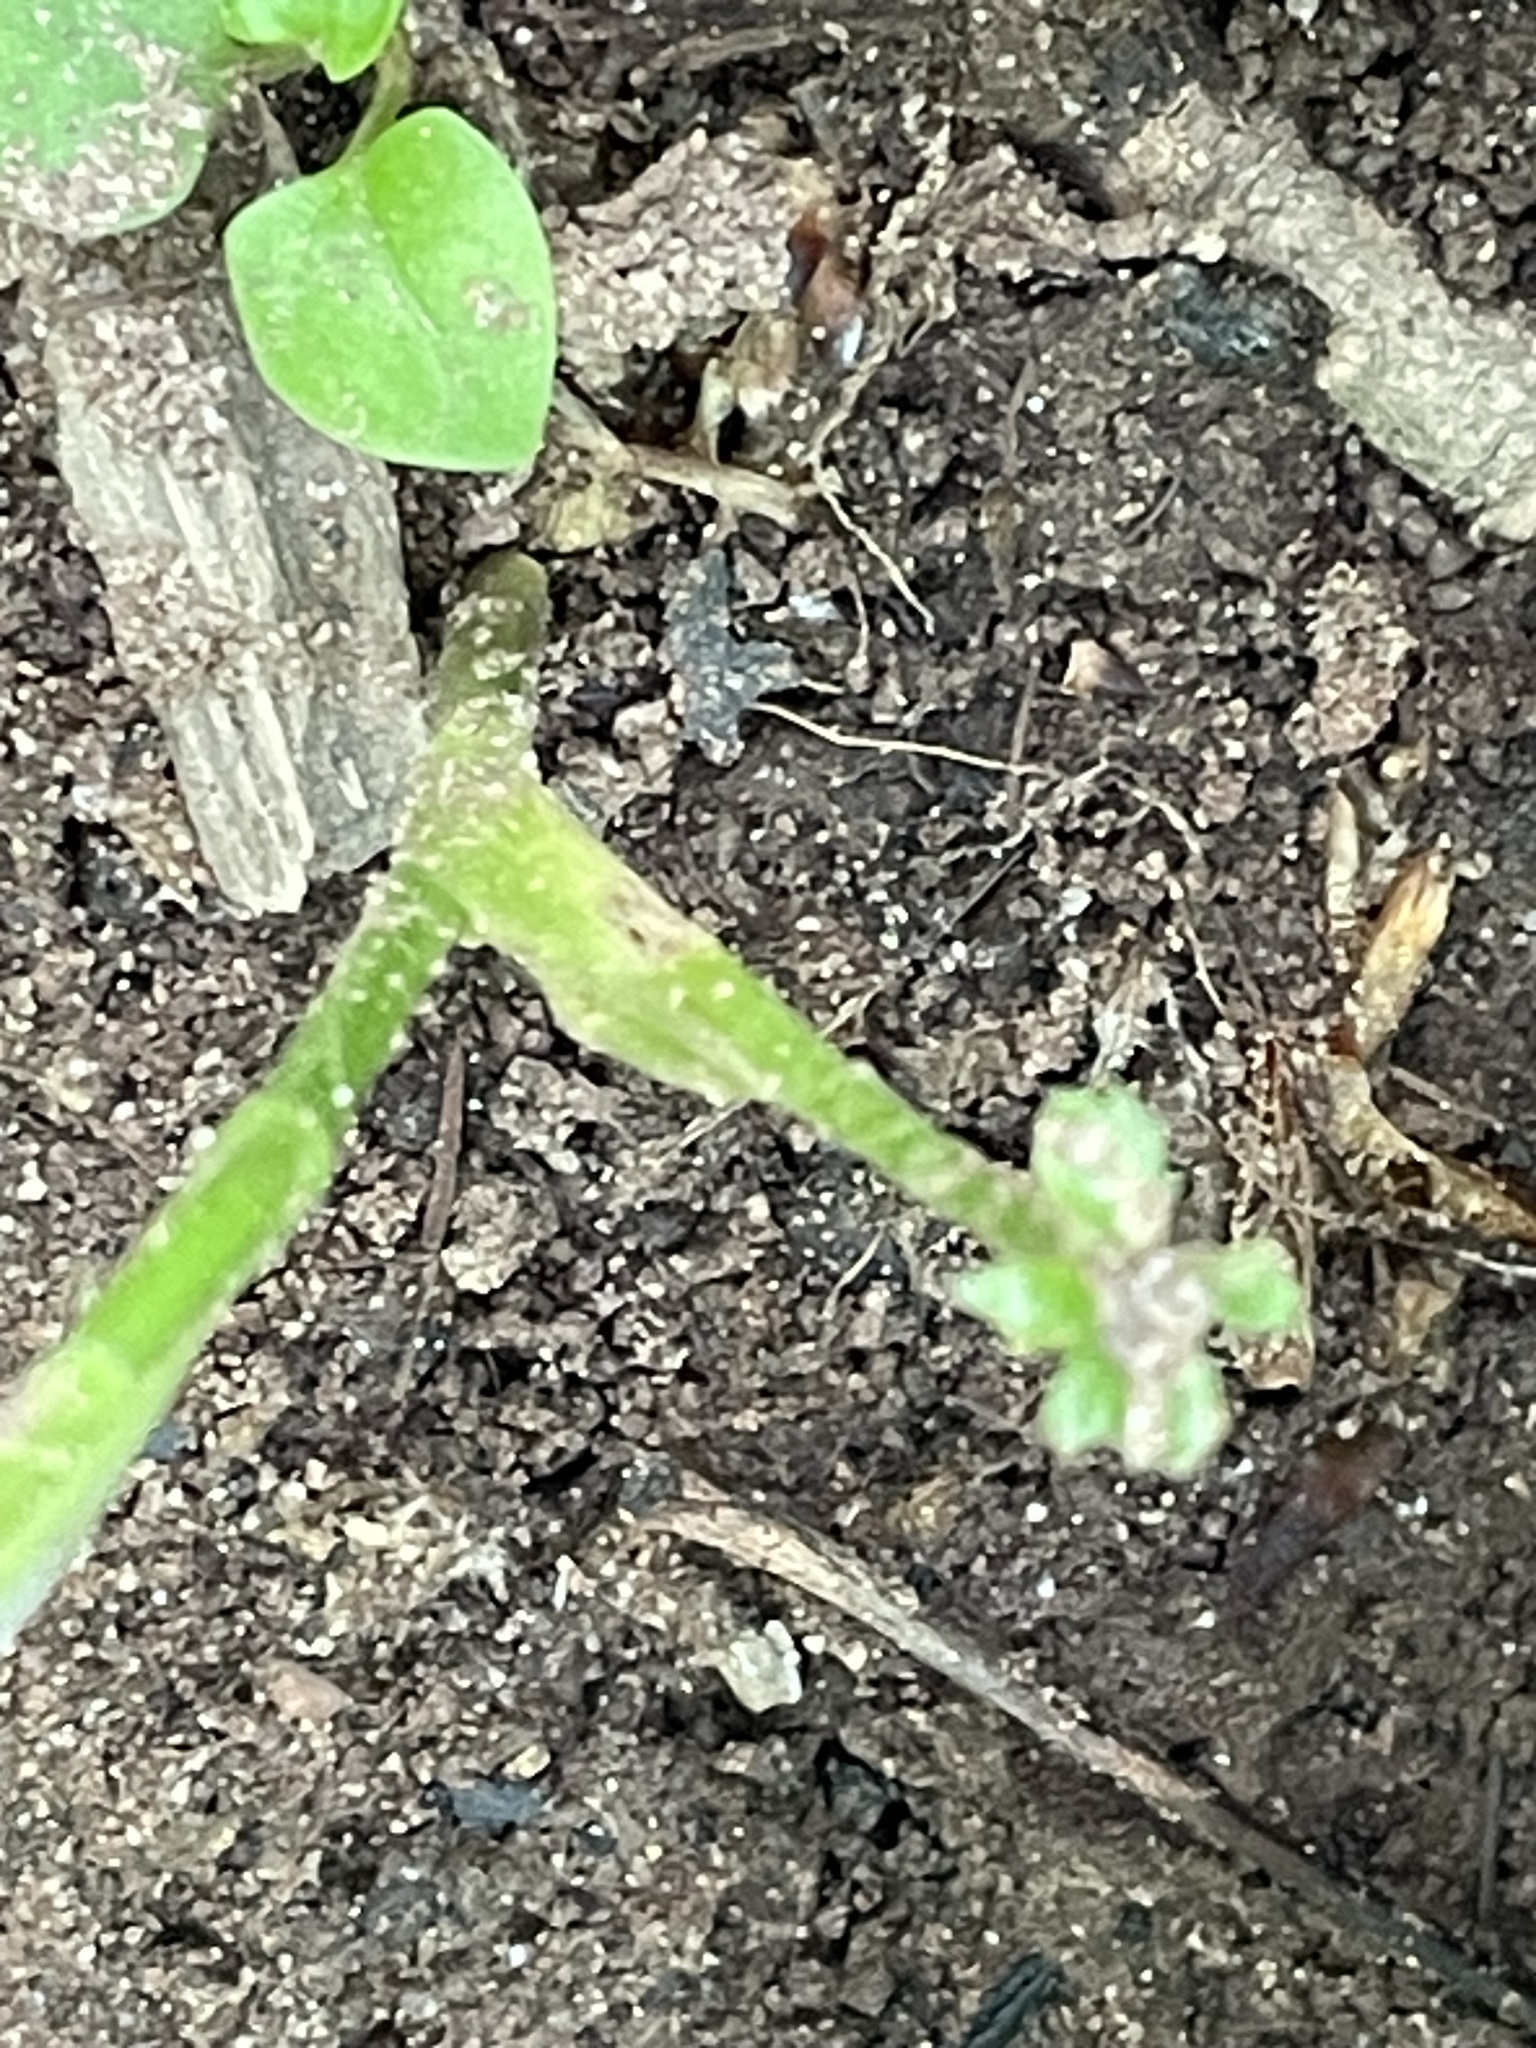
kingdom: Plantae
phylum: Tracheophyta
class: Magnoliopsida
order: Apiales
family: Apiaceae
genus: Cryptotaenia
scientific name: Cryptotaenia canadensis
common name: Honewort
